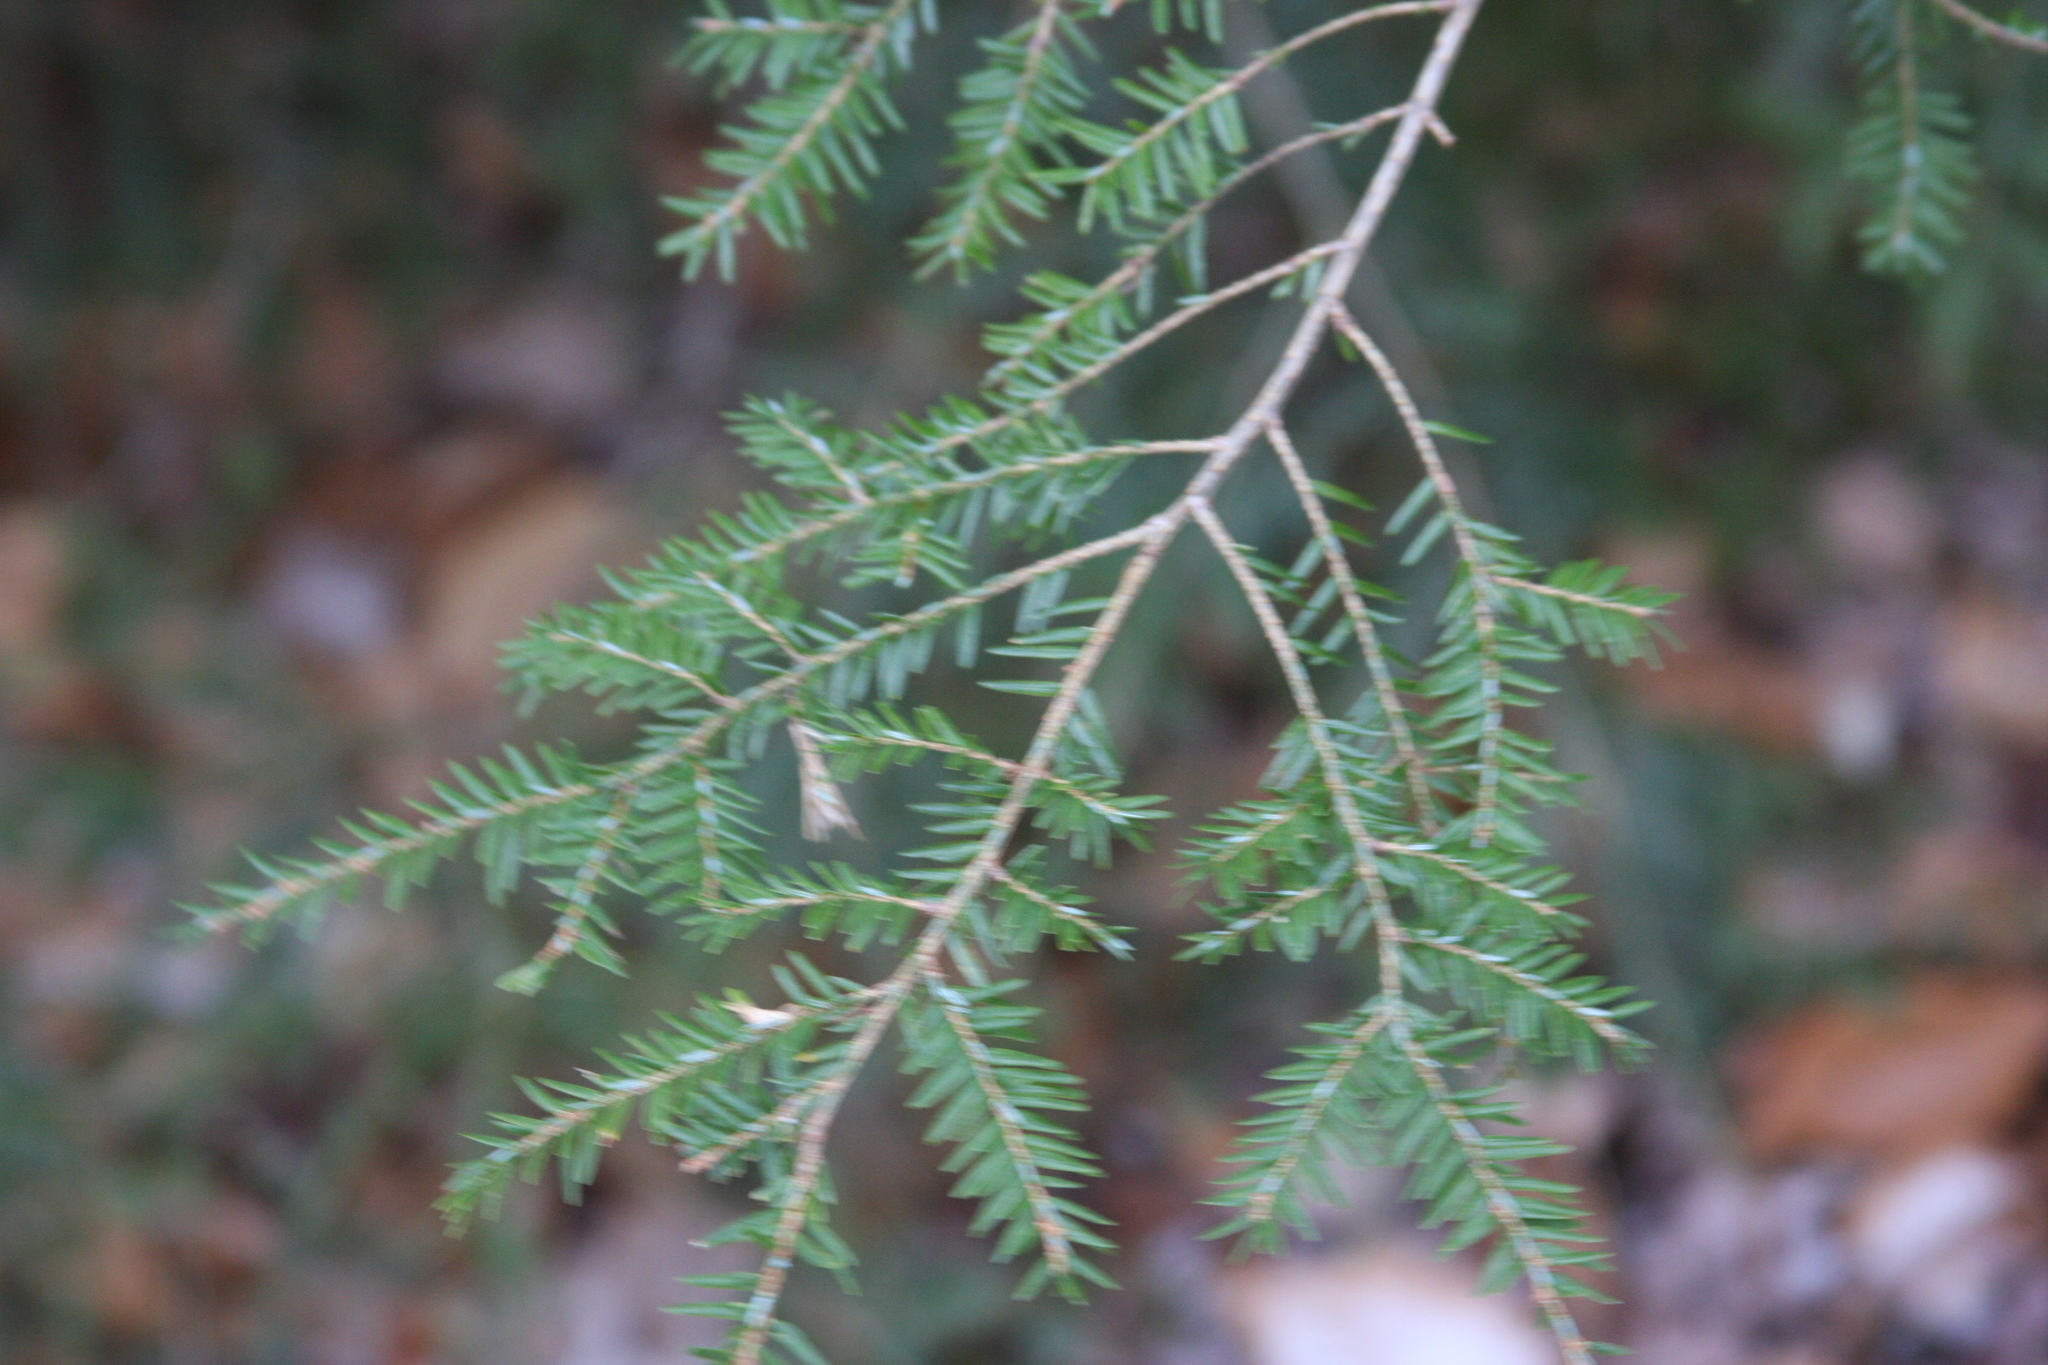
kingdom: Plantae
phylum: Tracheophyta
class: Pinopsida
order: Pinales
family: Pinaceae
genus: Tsuga
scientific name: Tsuga canadensis
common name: Eastern hemlock
